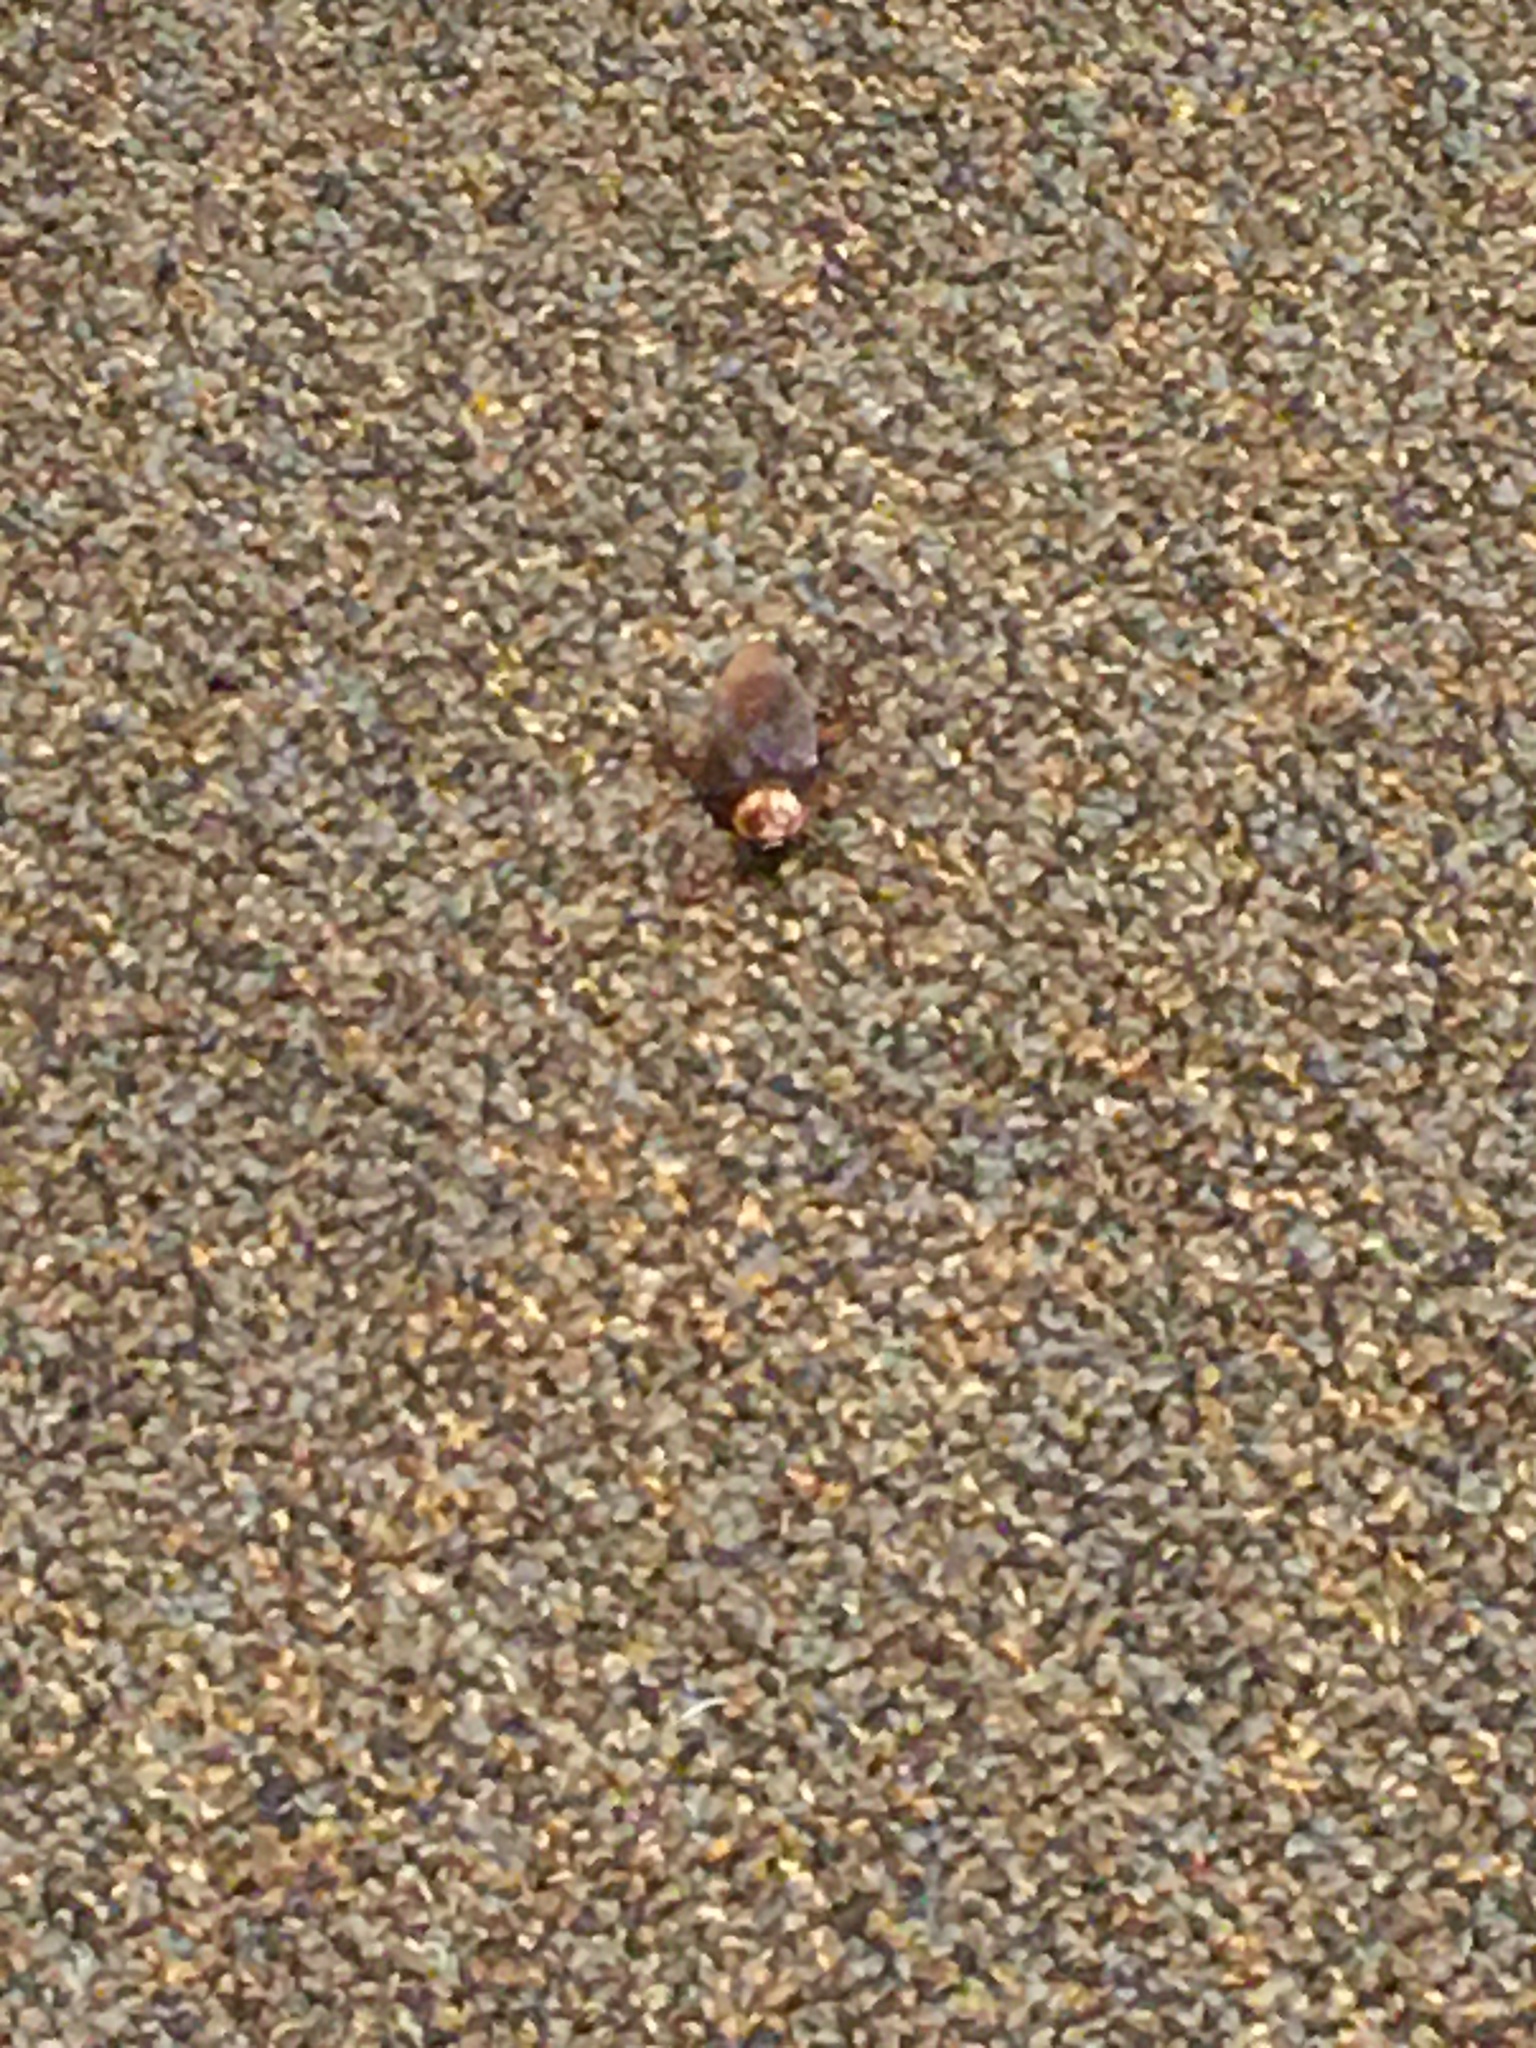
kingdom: Animalia
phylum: Arthropoda
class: Insecta
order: Blattodea
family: Blattidae
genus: Periplaneta
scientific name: Periplaneta americana
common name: American cockroach
